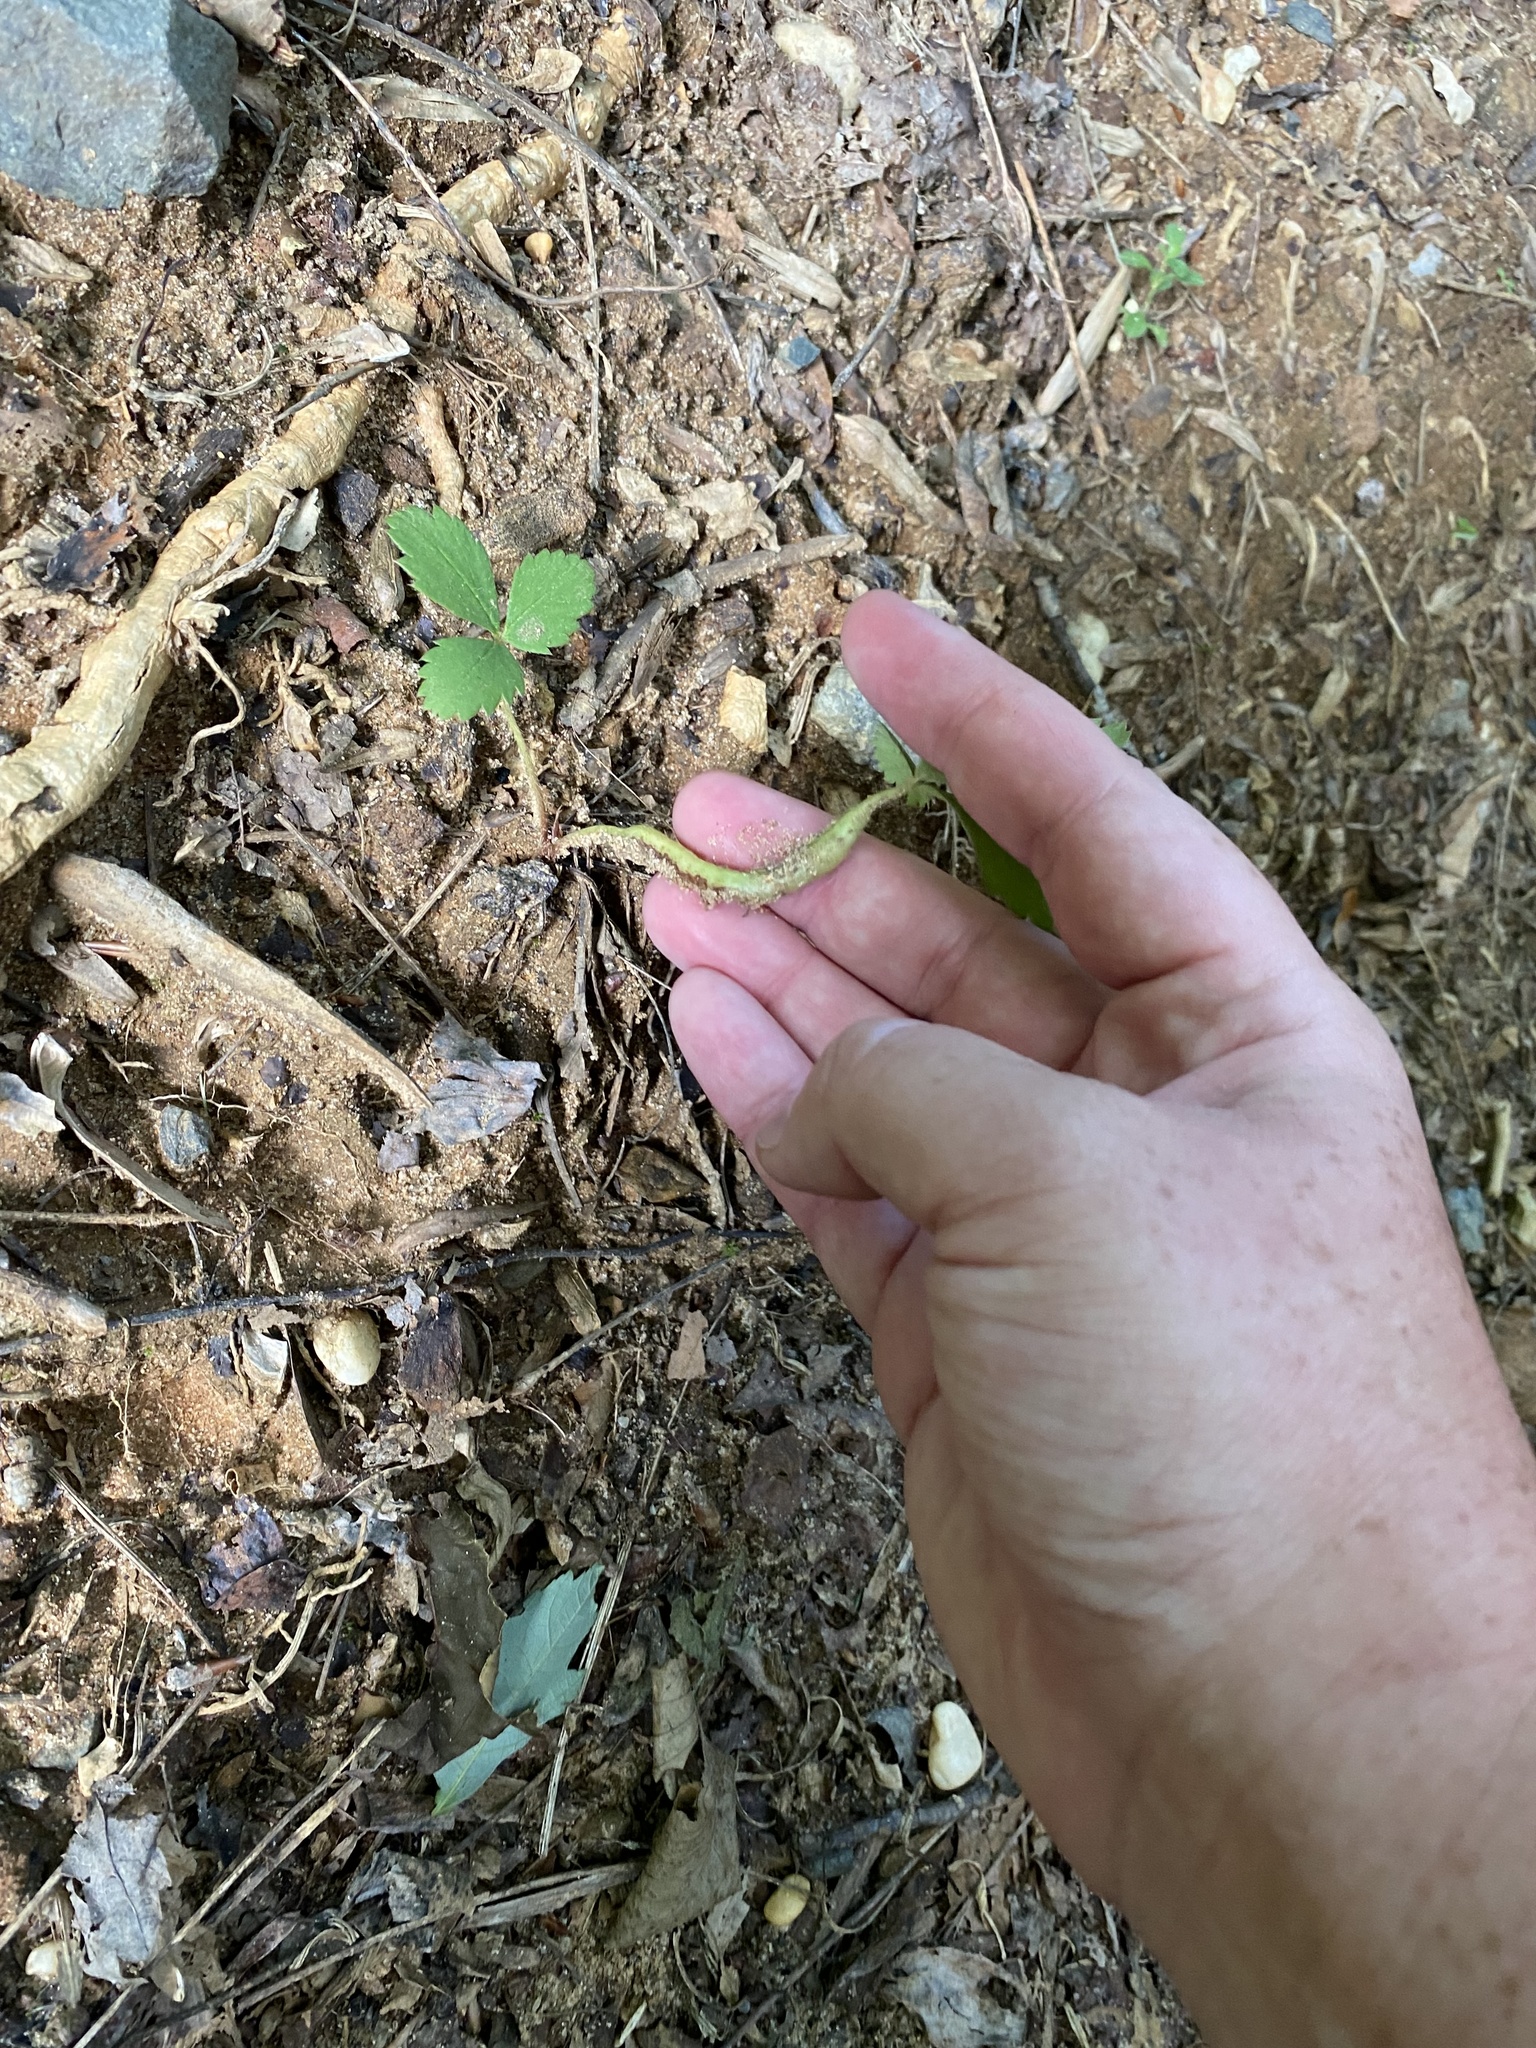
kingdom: Animalia
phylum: Arthropoda
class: Insecta
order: Hymenoptera
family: Cynipidae
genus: Diastrophus
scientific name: Diastrophus
